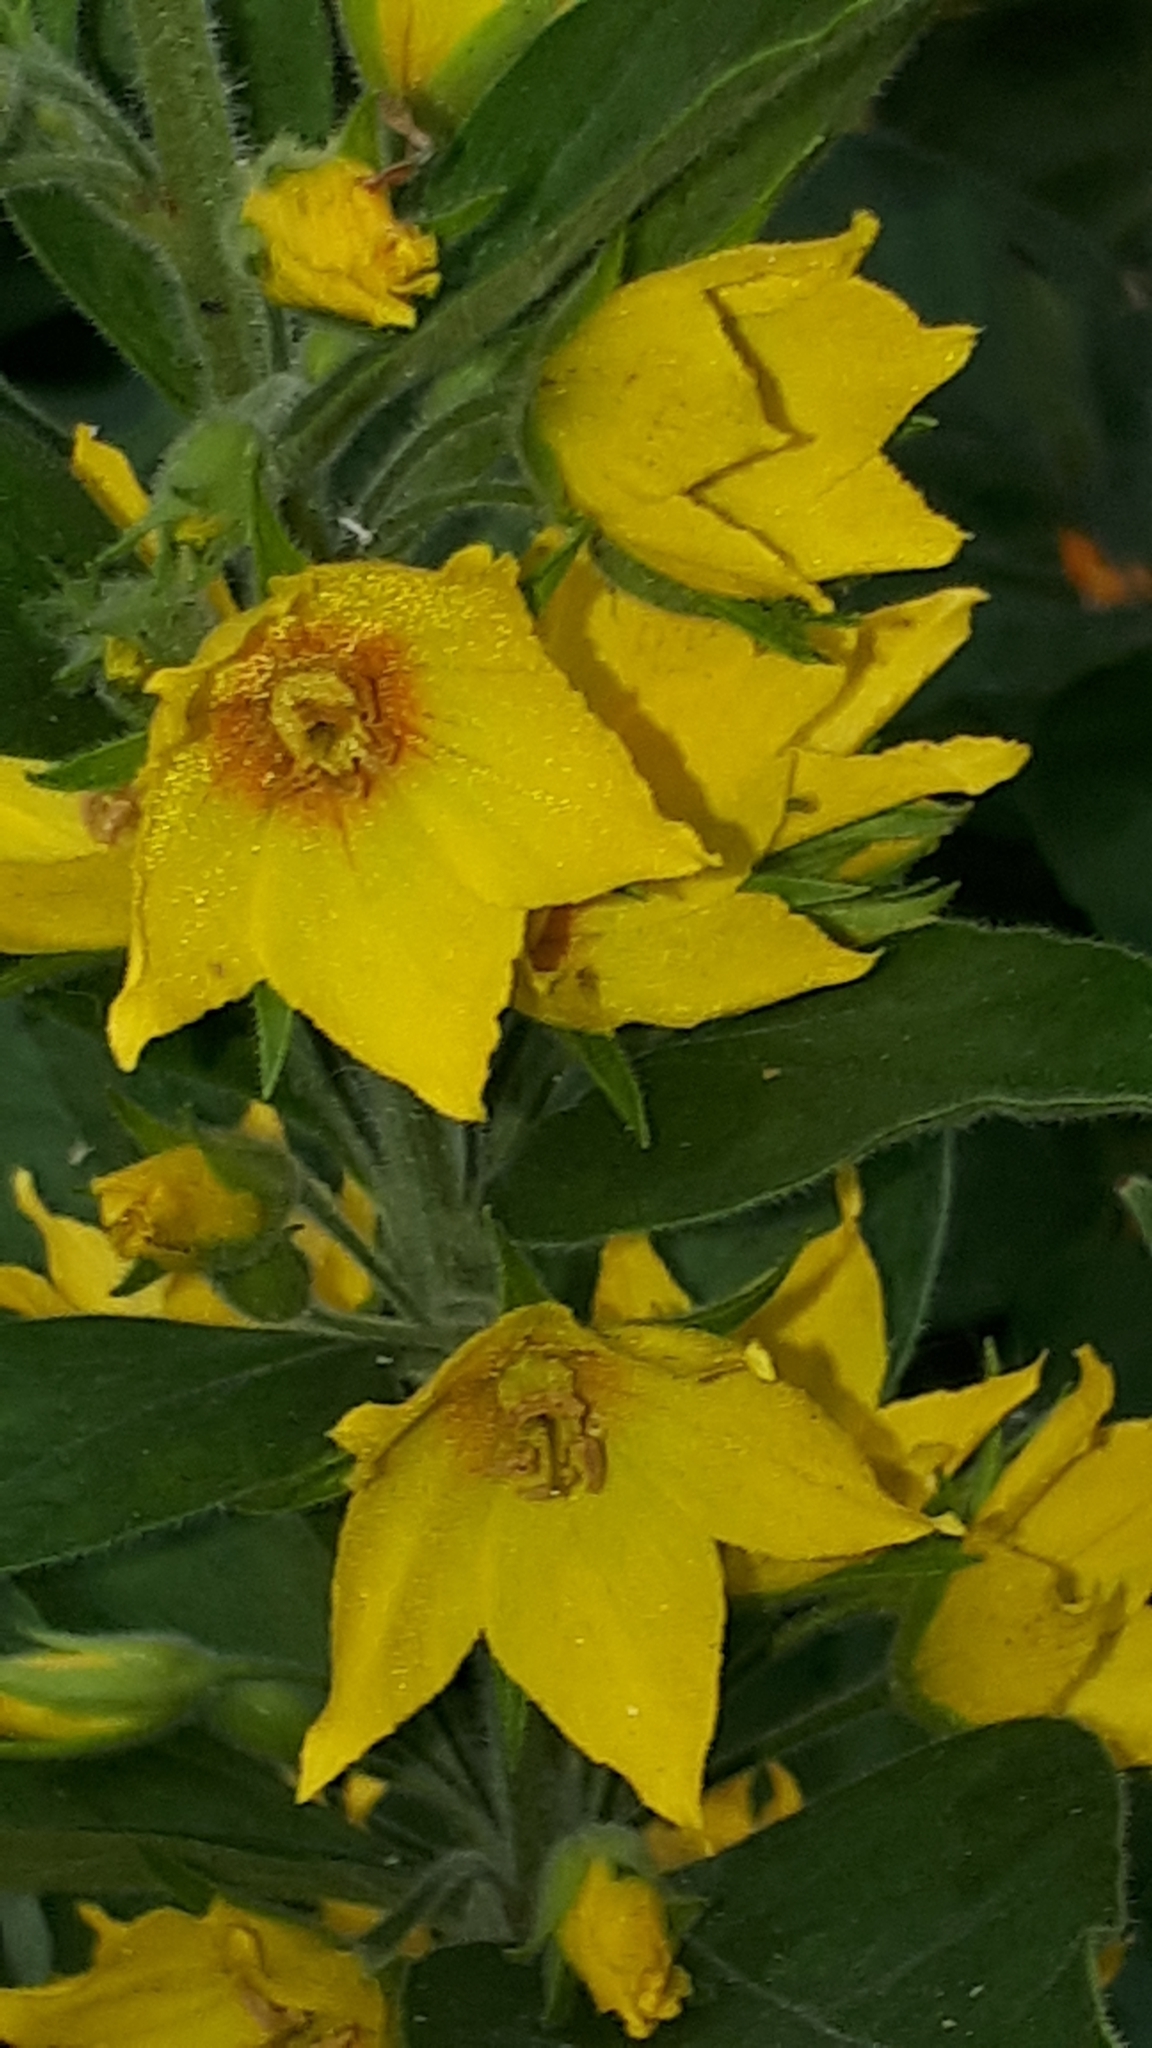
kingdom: Plantae
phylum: Tracheophyta
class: Magnoliopsida
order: Ericales
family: Primulaceae
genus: Lysimachia
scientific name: Lysimachia punctata
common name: Dotted loosestrife
